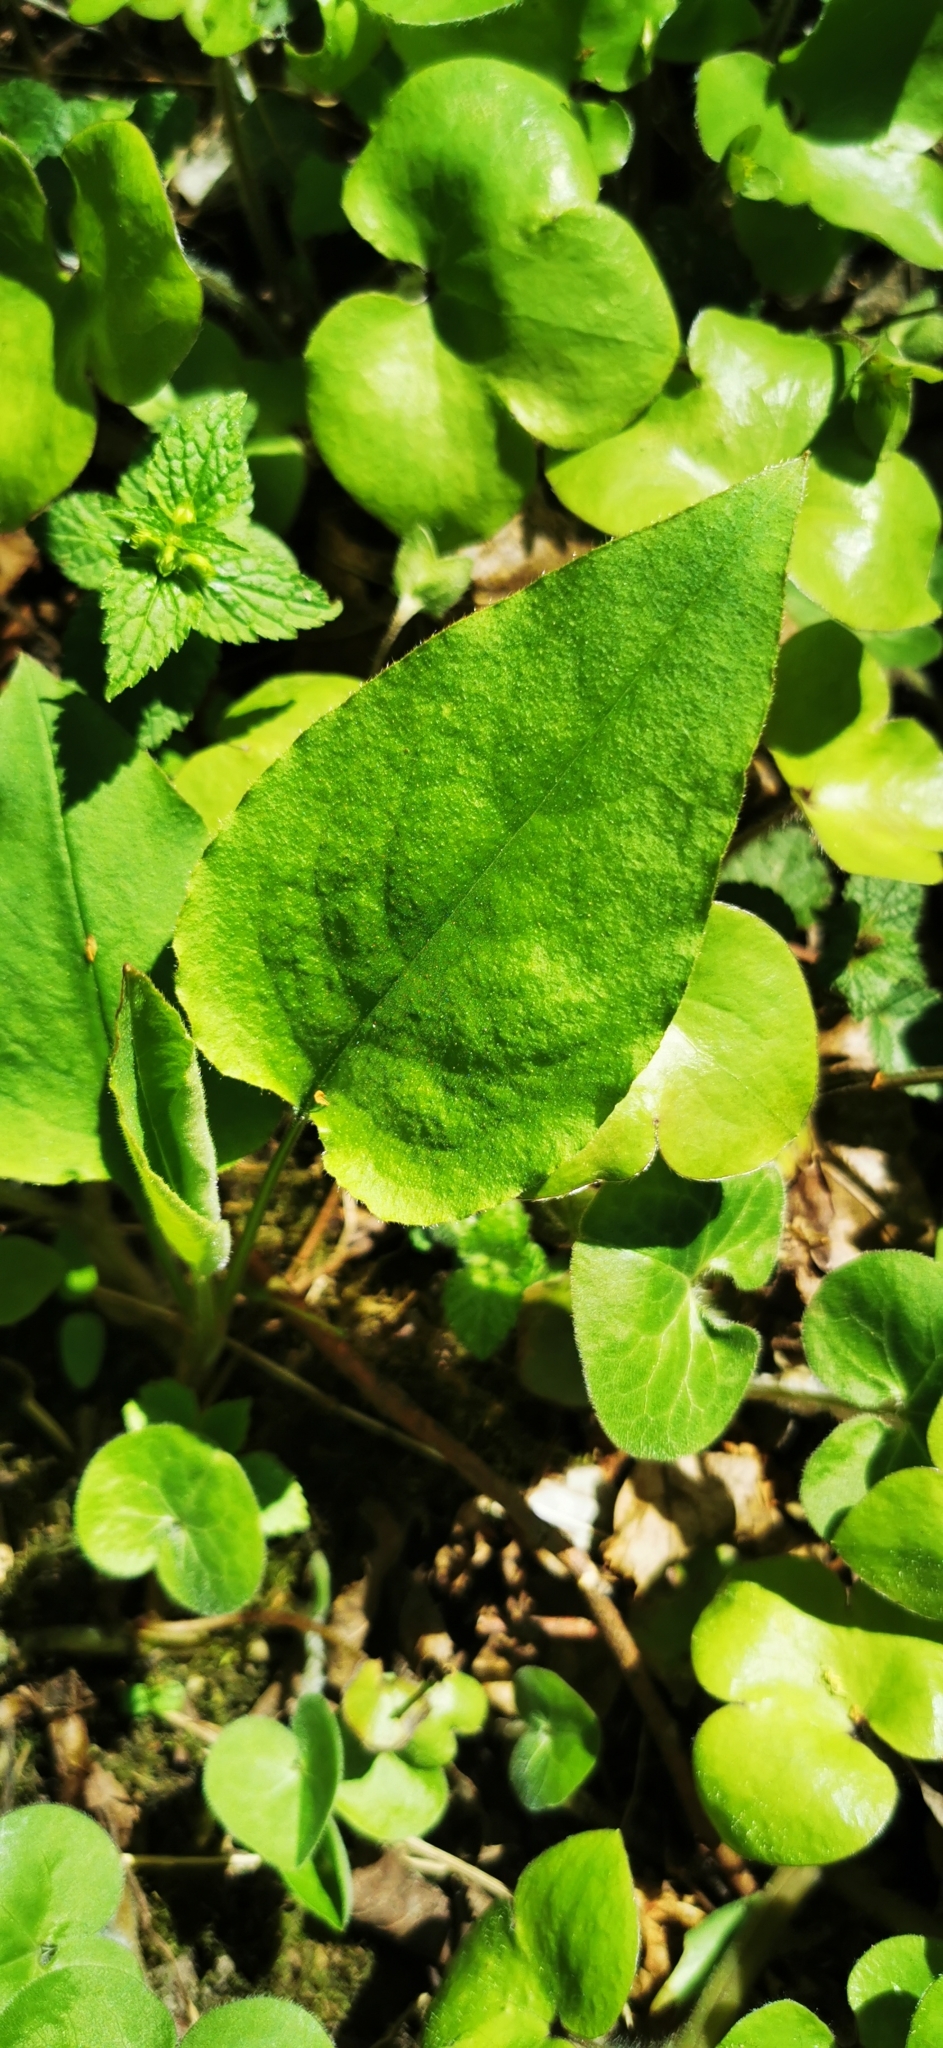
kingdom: Plantae
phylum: Tracheophyta
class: Magnoliopsida
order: Boraginales
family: Boraginaceae
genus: Pulmonaria
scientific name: Pulmonaria obscura
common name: Suffolk lungwort
